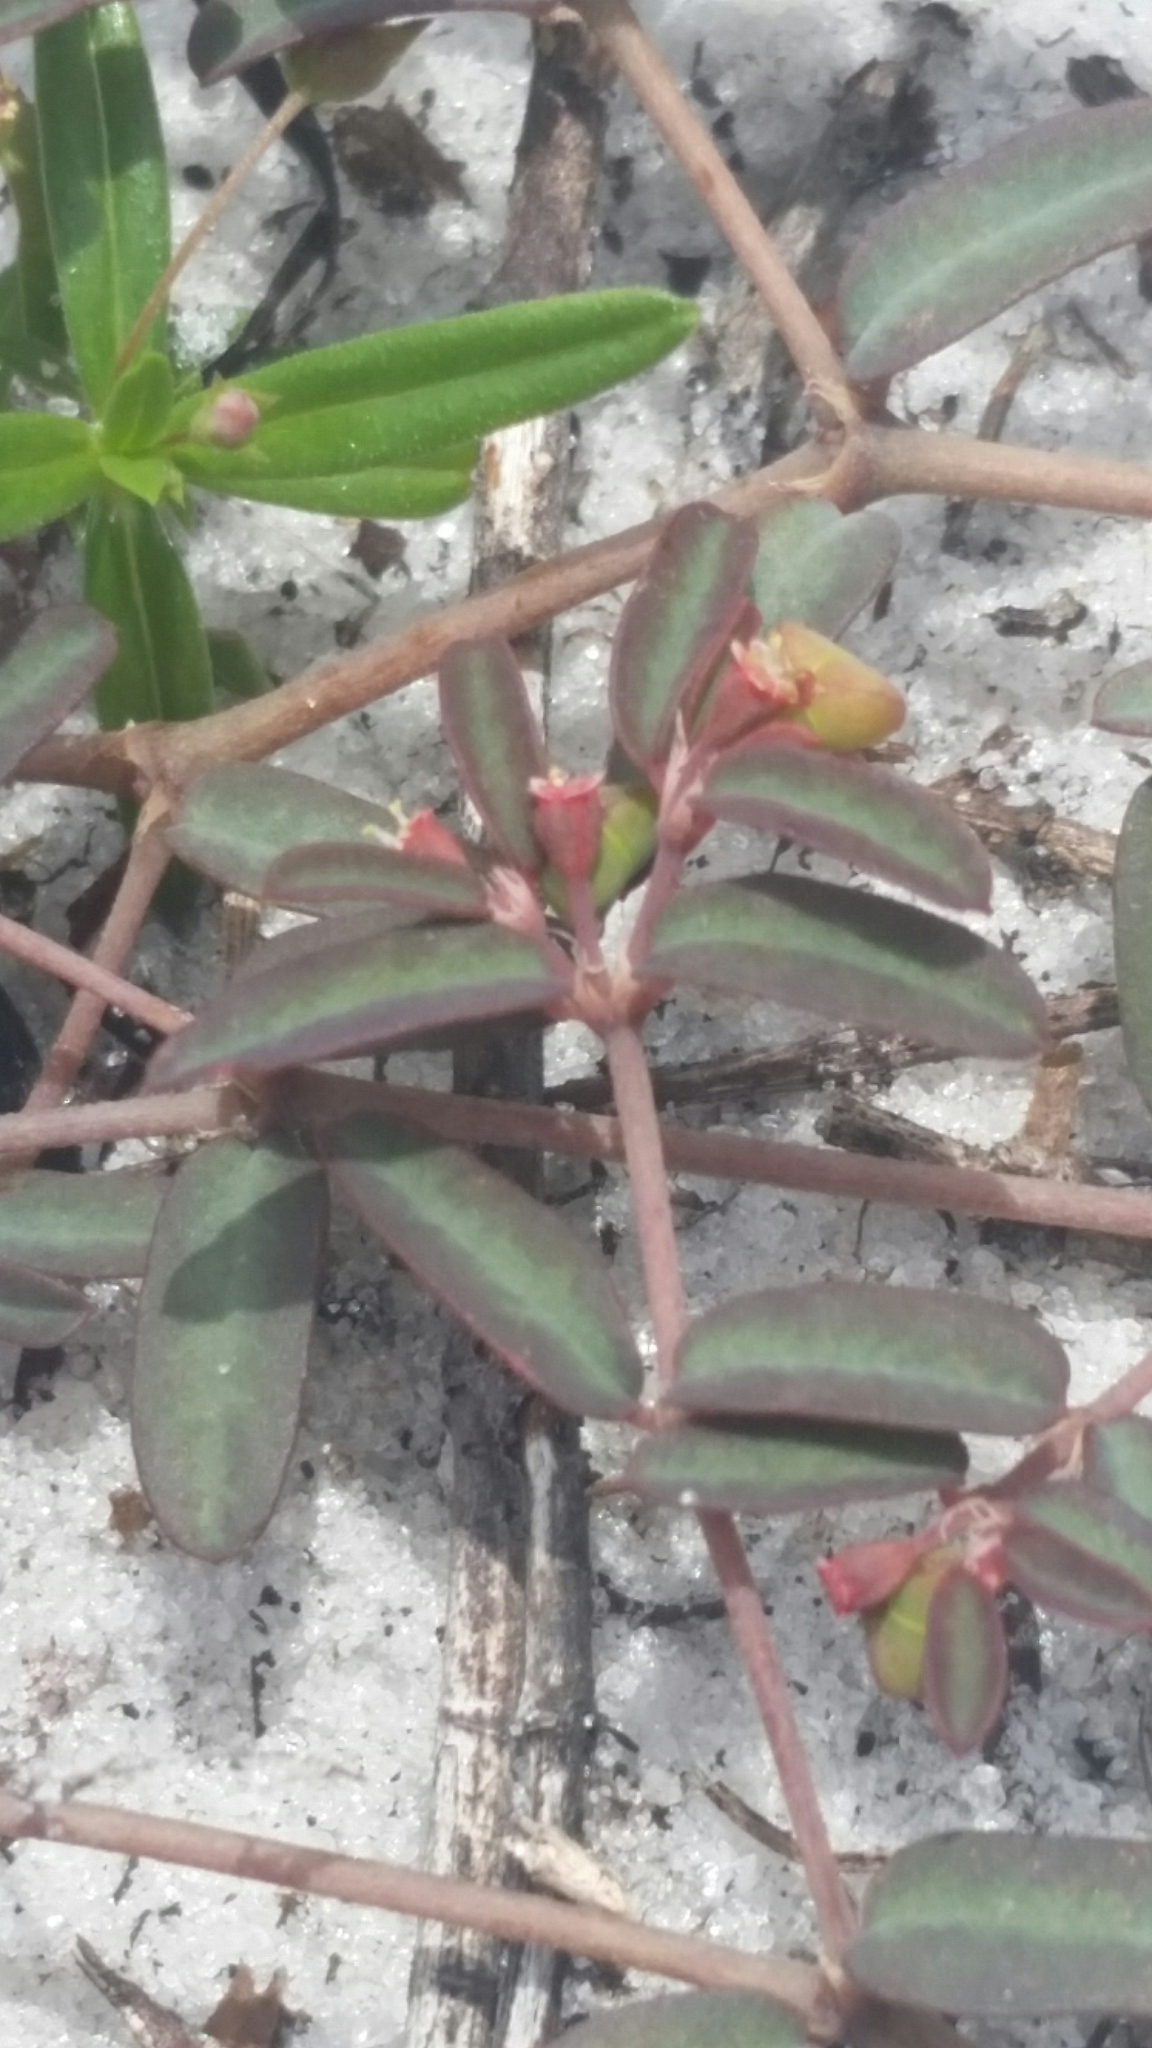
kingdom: Plantae
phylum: Tracheophyta
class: Magnoliopsida
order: Malpighiales
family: Euphorbiaceae
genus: Euphorbia
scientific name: Euphorbia cumulicola
